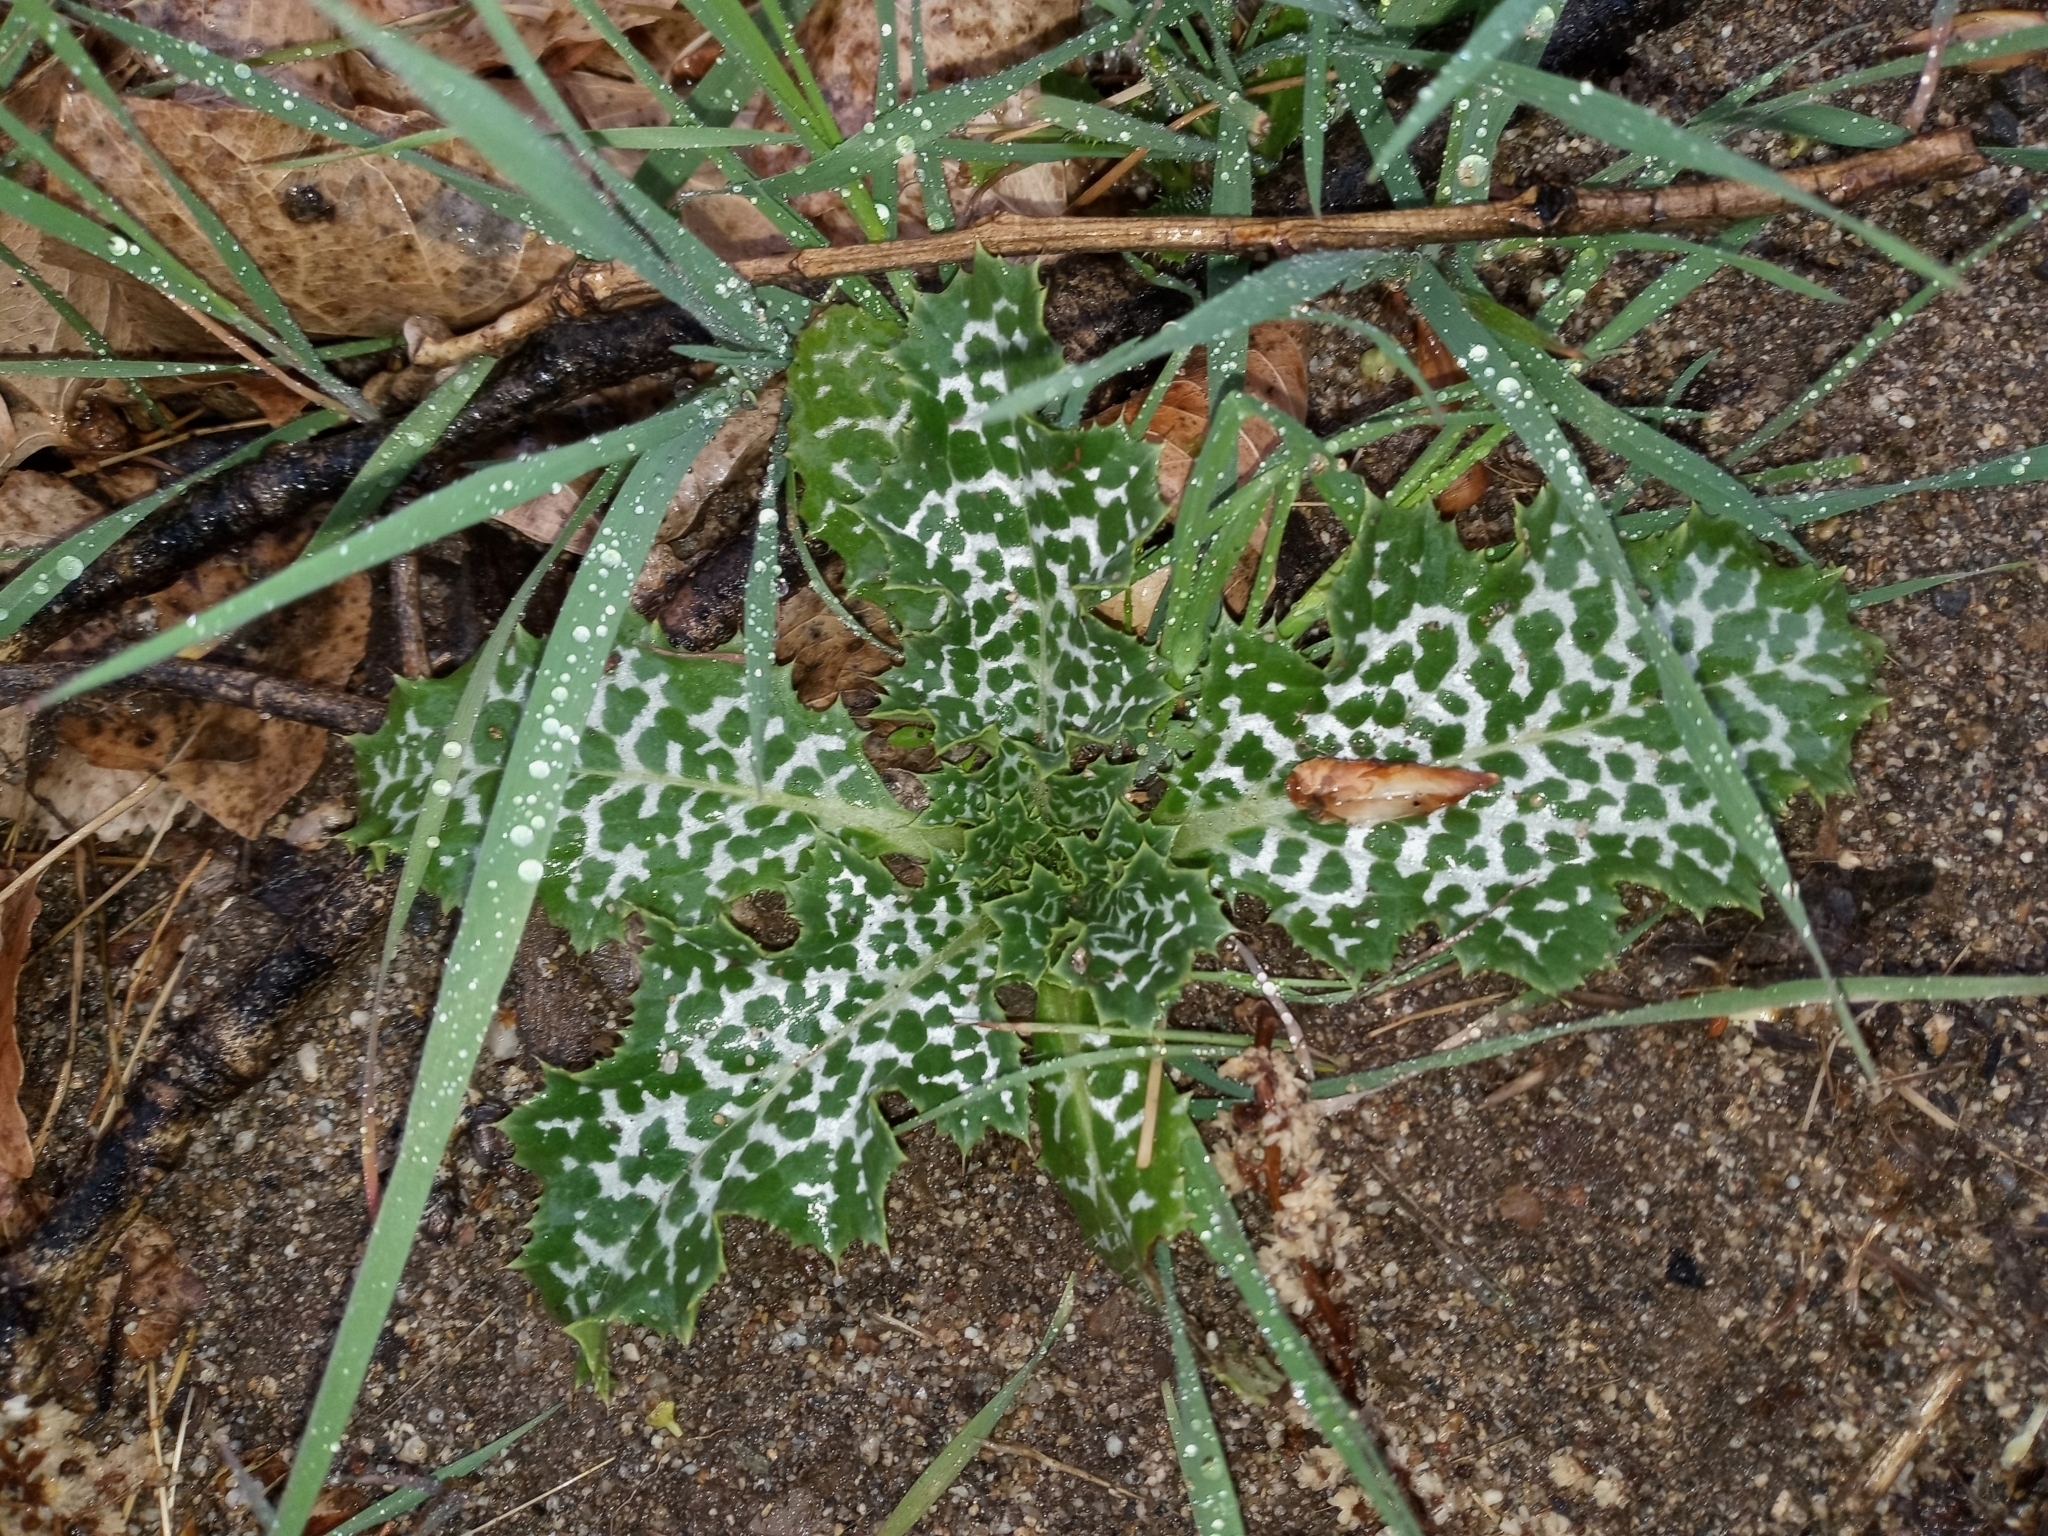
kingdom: Plantae
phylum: Tracheophyta
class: Magnoliopsida
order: Asterales
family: Asteraceae
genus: Silybum
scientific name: Silybum marianum
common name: Milk thistle
